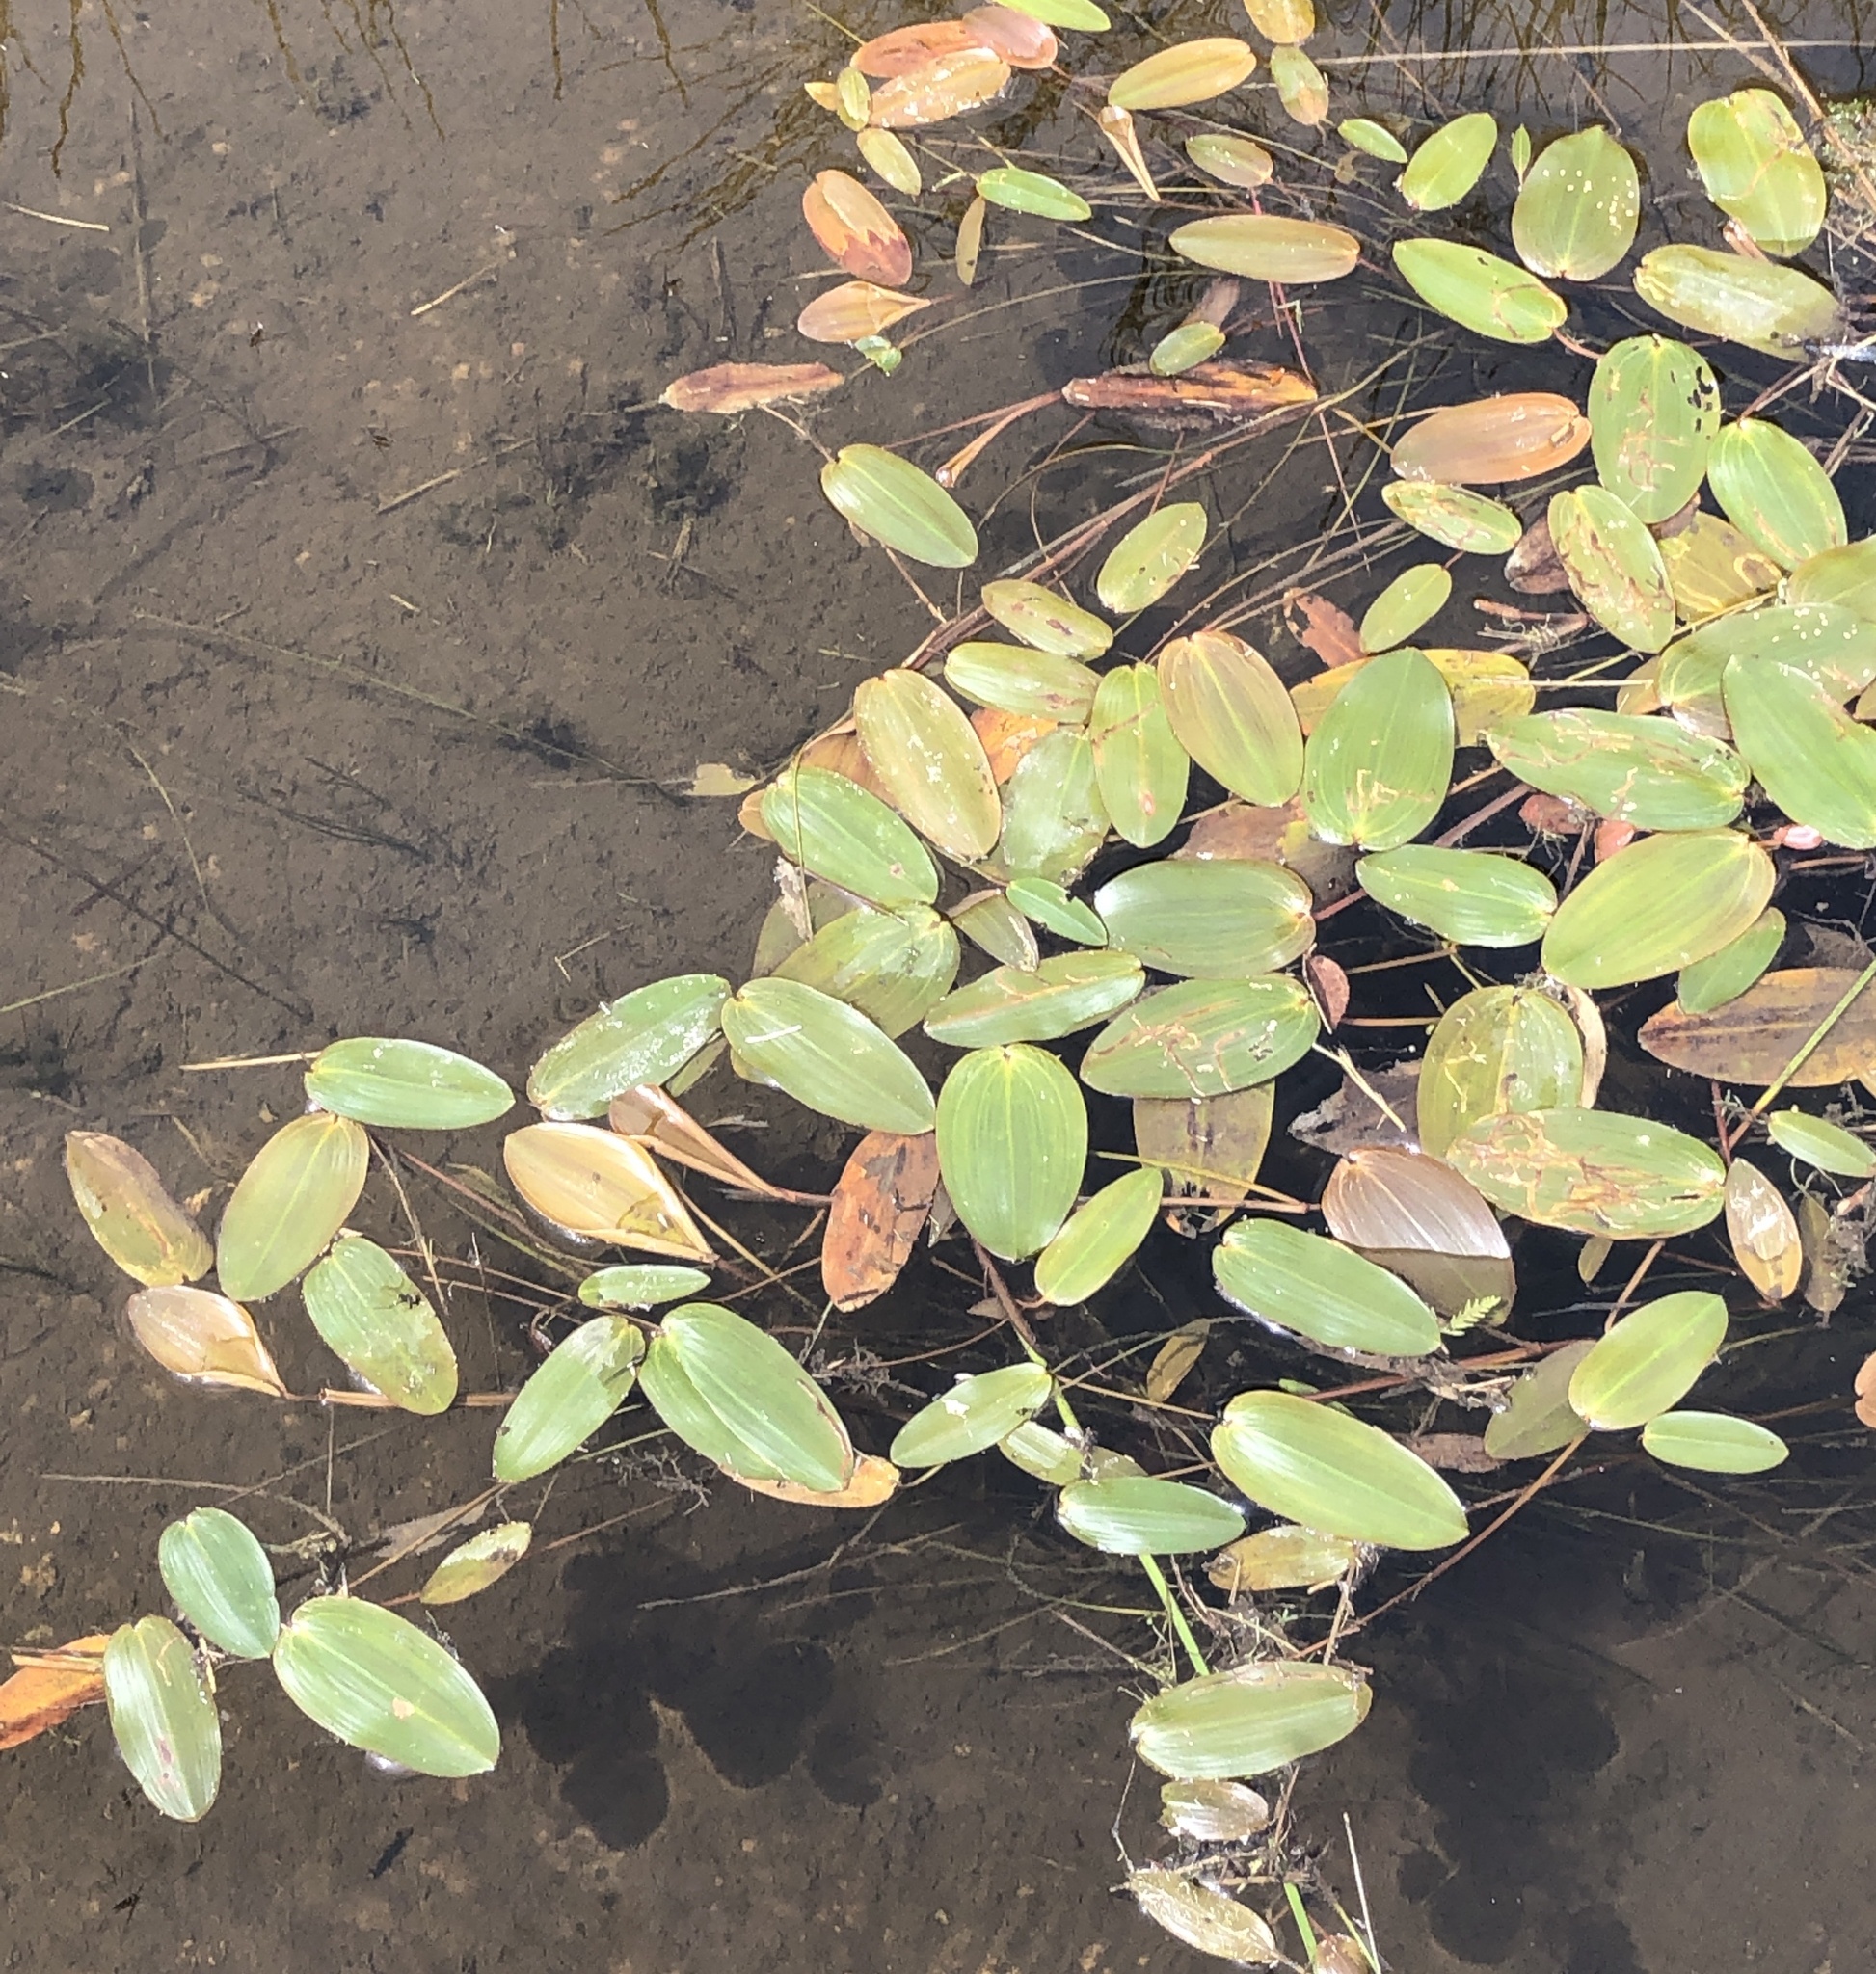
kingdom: Plantae
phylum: Tracheophyta
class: Liliopsida
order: Alismatales
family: Potamogetonaceae
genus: Potamogeton
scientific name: Potamogeton natans
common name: Broad-leaved pondweed
